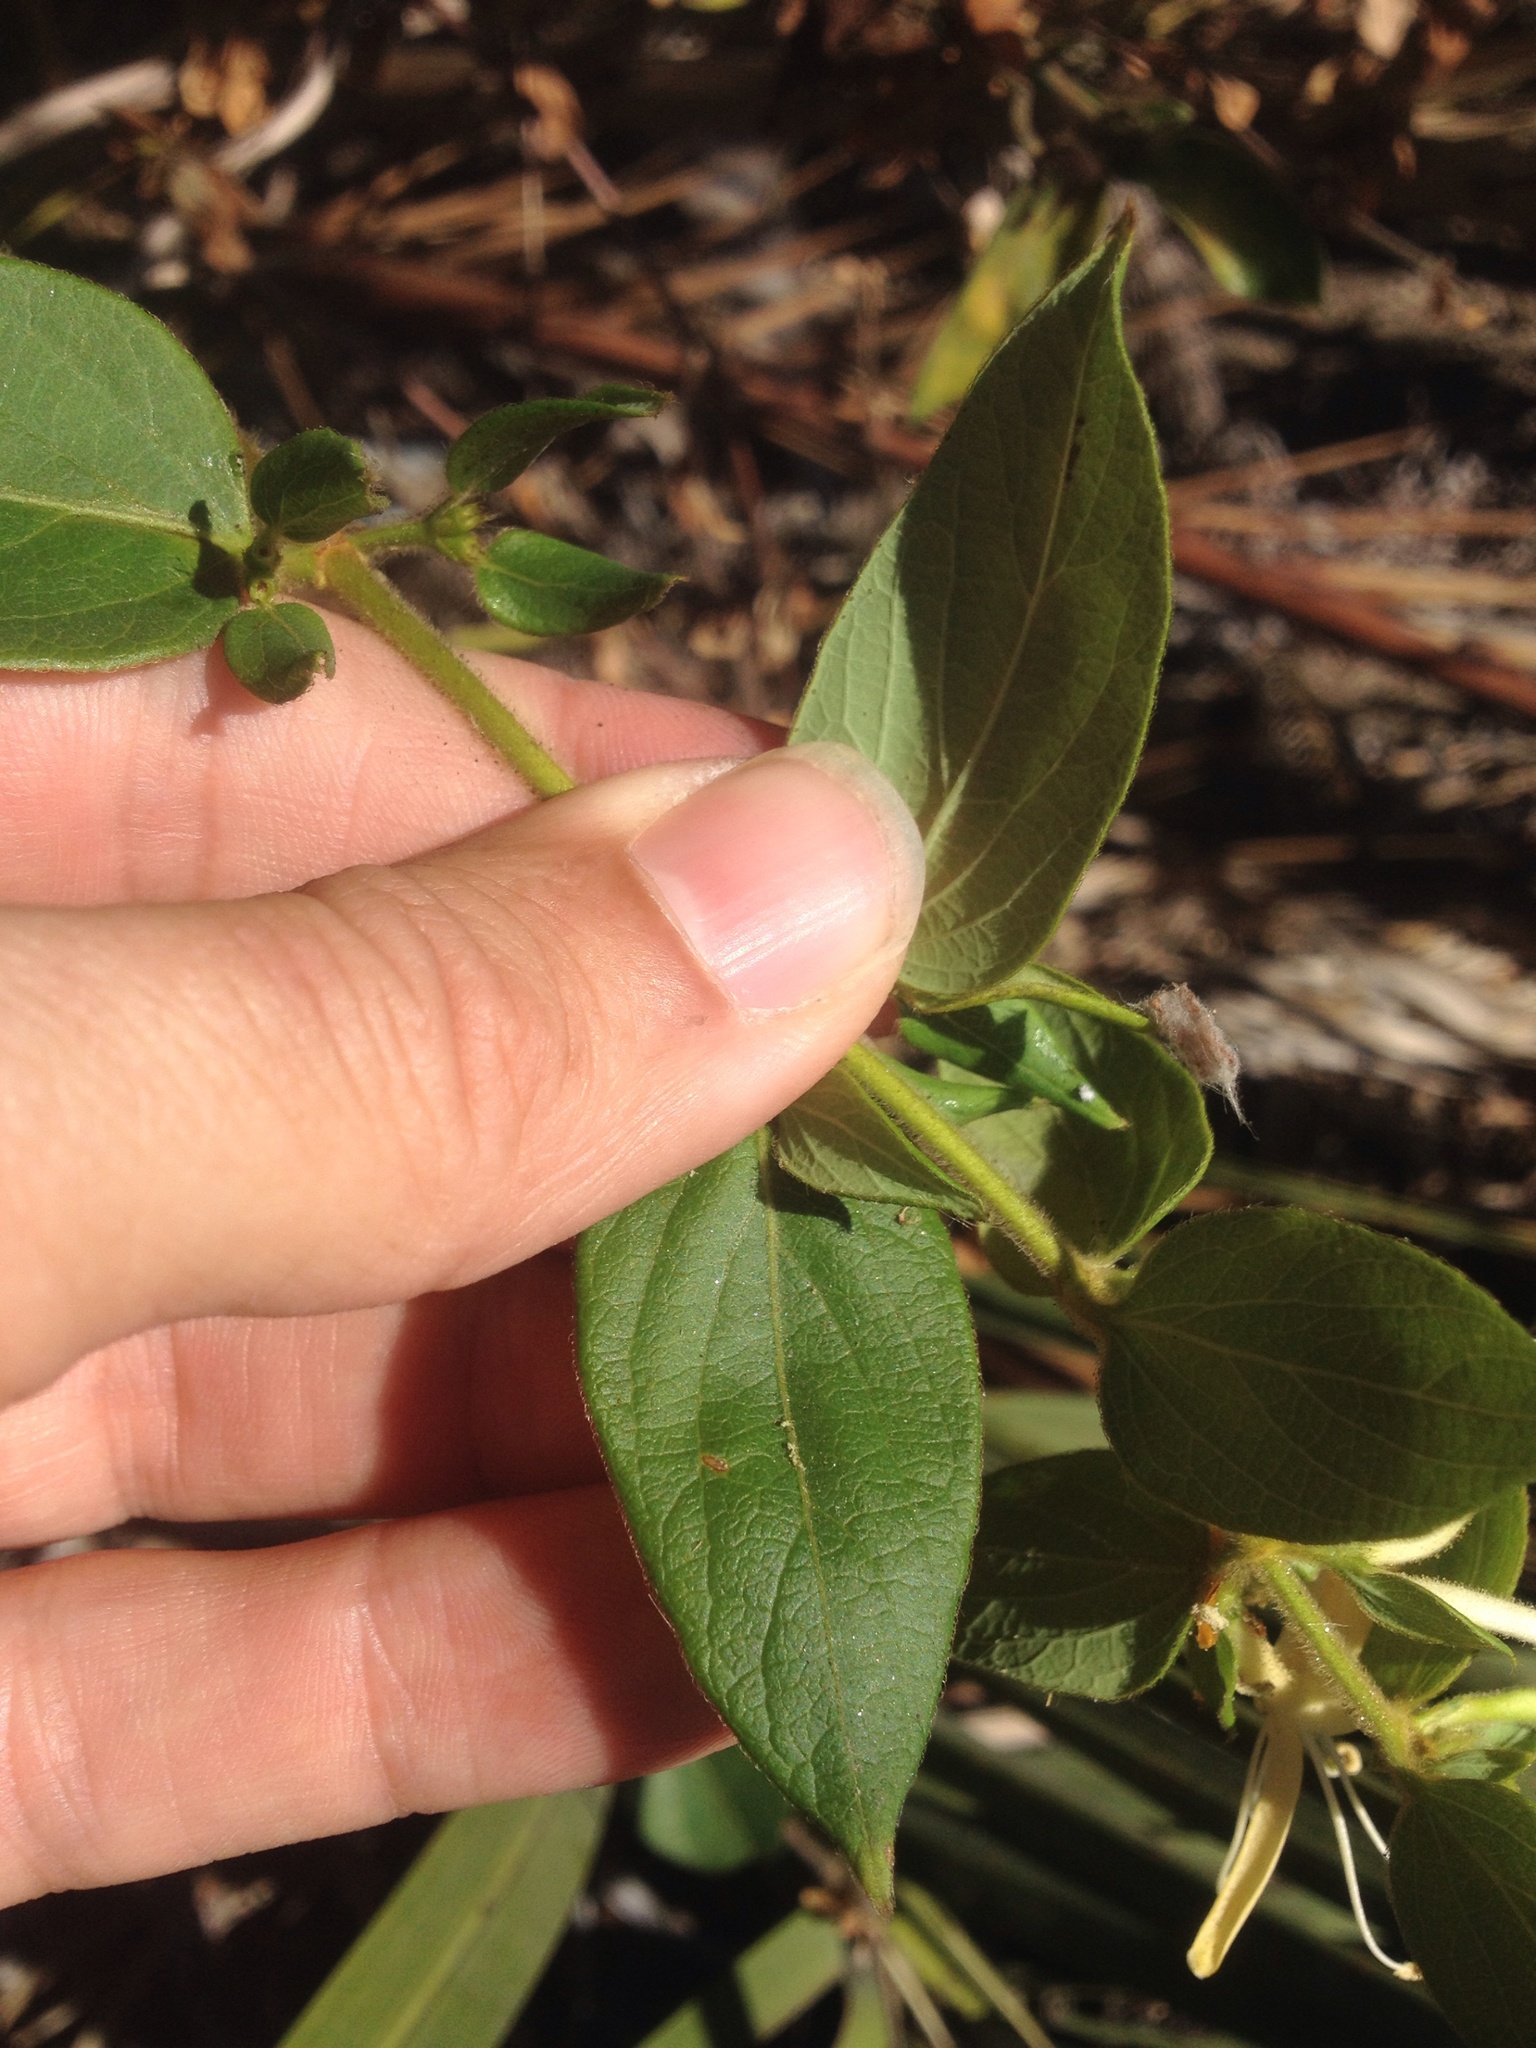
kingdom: Plantae
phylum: Tracheophyta
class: Magnoliopsida
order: Dipsacales
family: Caprifoliaceae
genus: Lonicera
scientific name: Lonicera japonica
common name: Japanese honeysuckle
